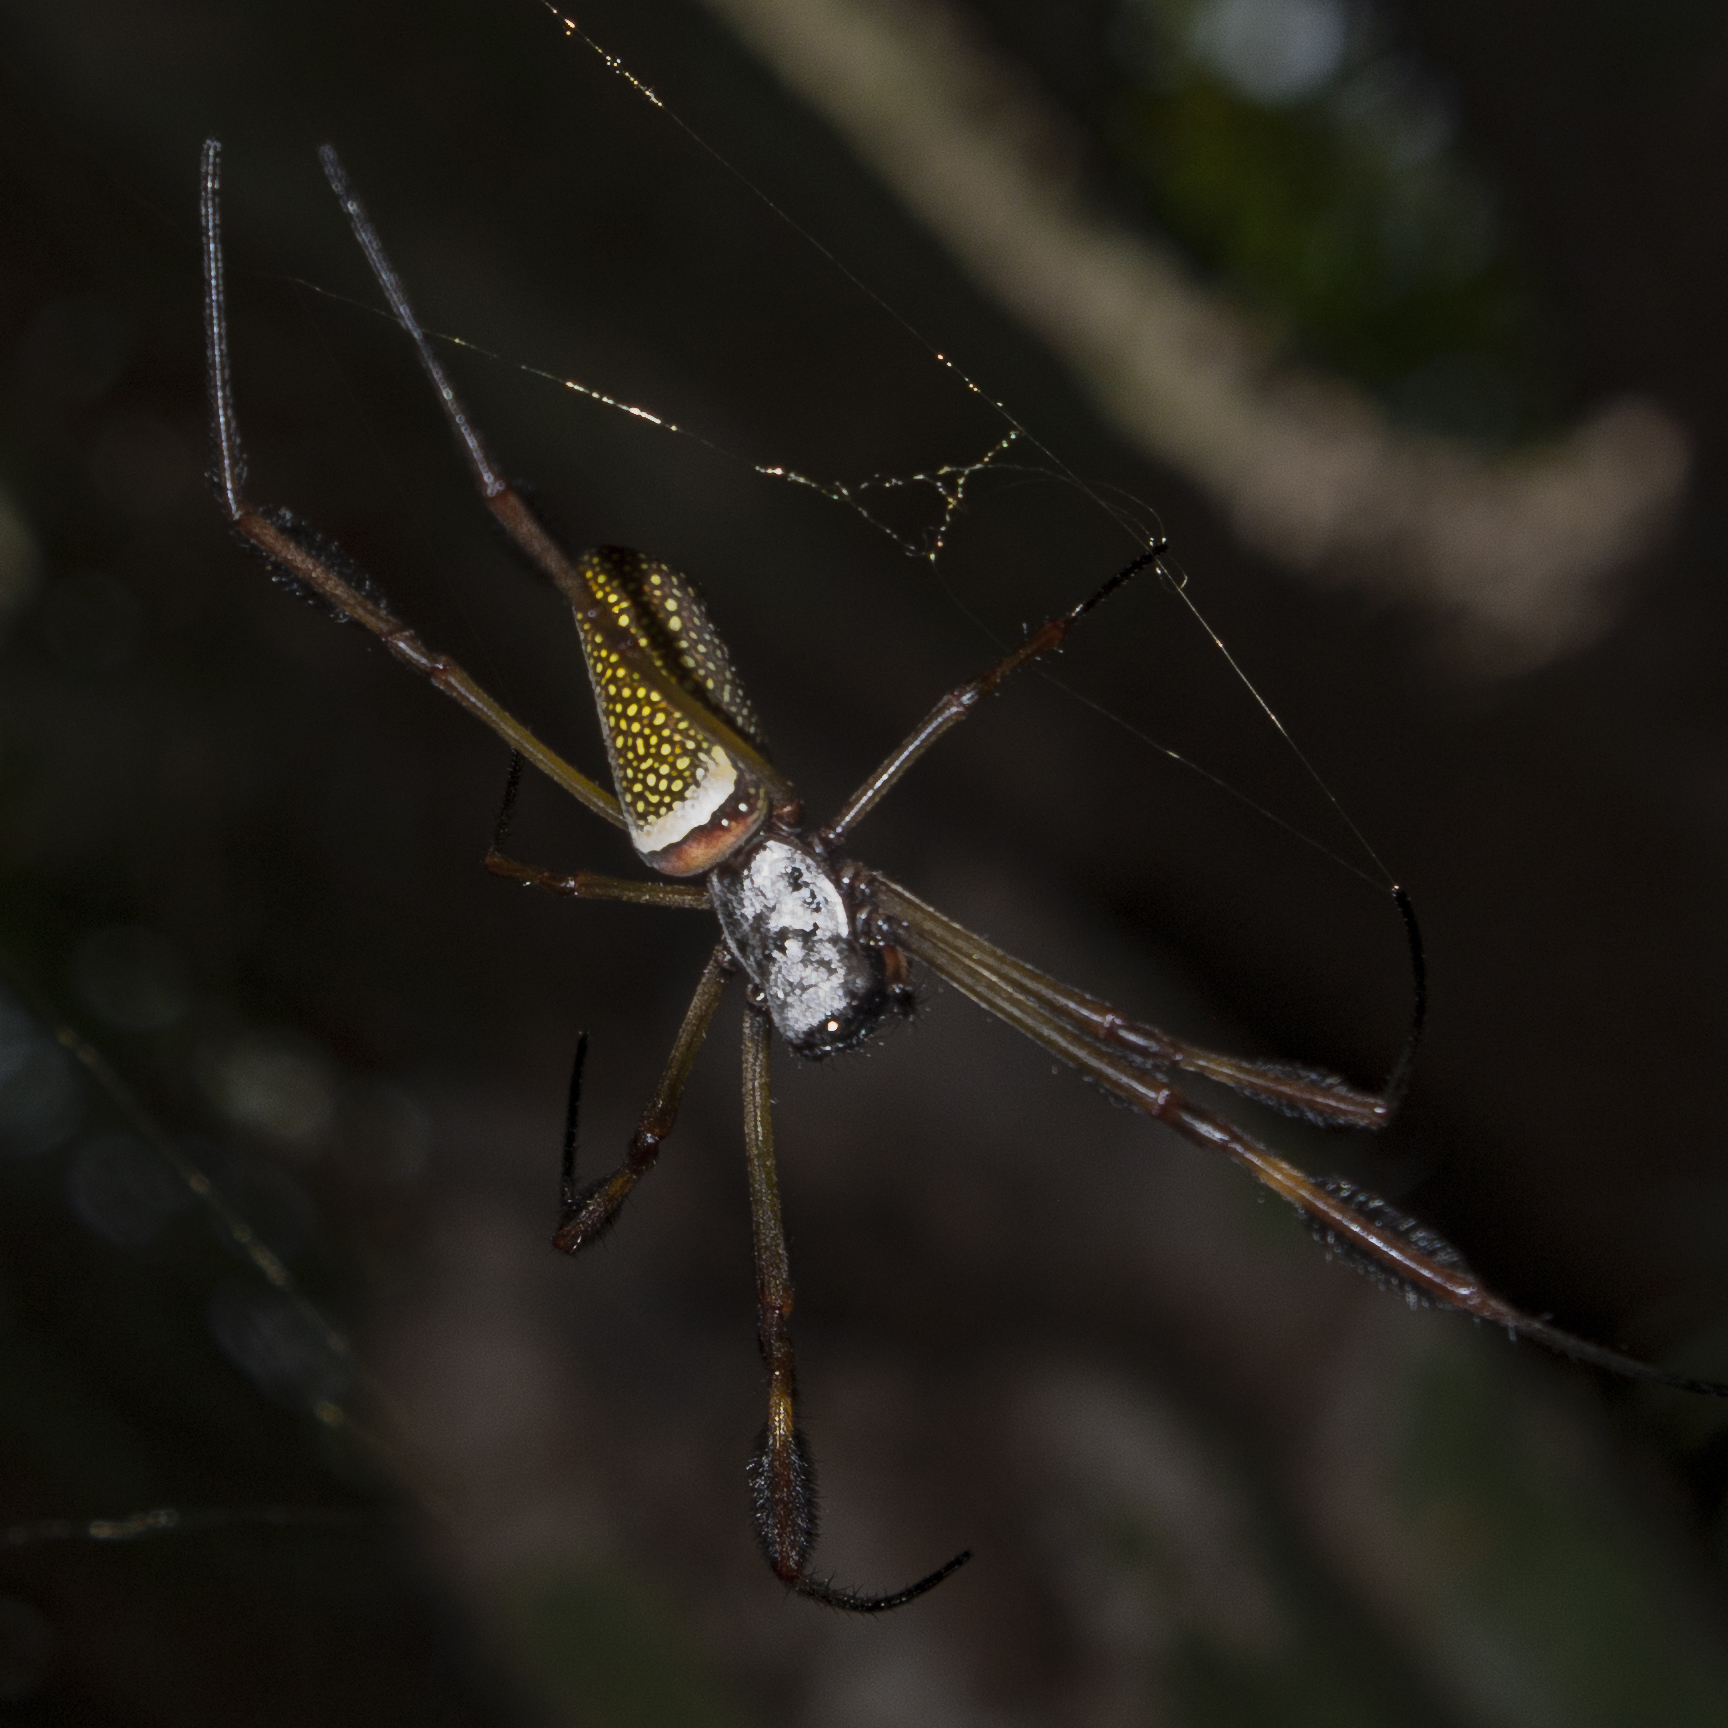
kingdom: Animalia
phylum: Arthropoda
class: Arachnida
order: Araneae
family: Araneidae
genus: Trichonephila
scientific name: Trichonephila clavipes
